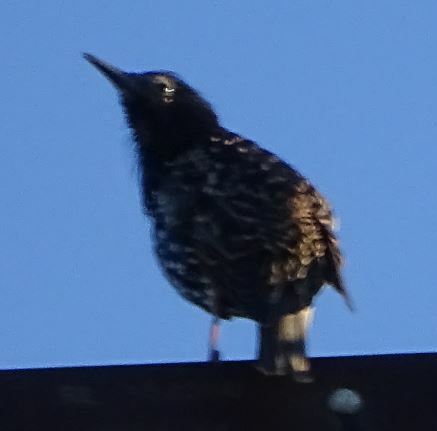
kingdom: Animalia
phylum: Chordata
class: Aves
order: Passeriformes
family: Sturnidae
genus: Sturnus
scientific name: Sturnus vulgaris
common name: Common starling
